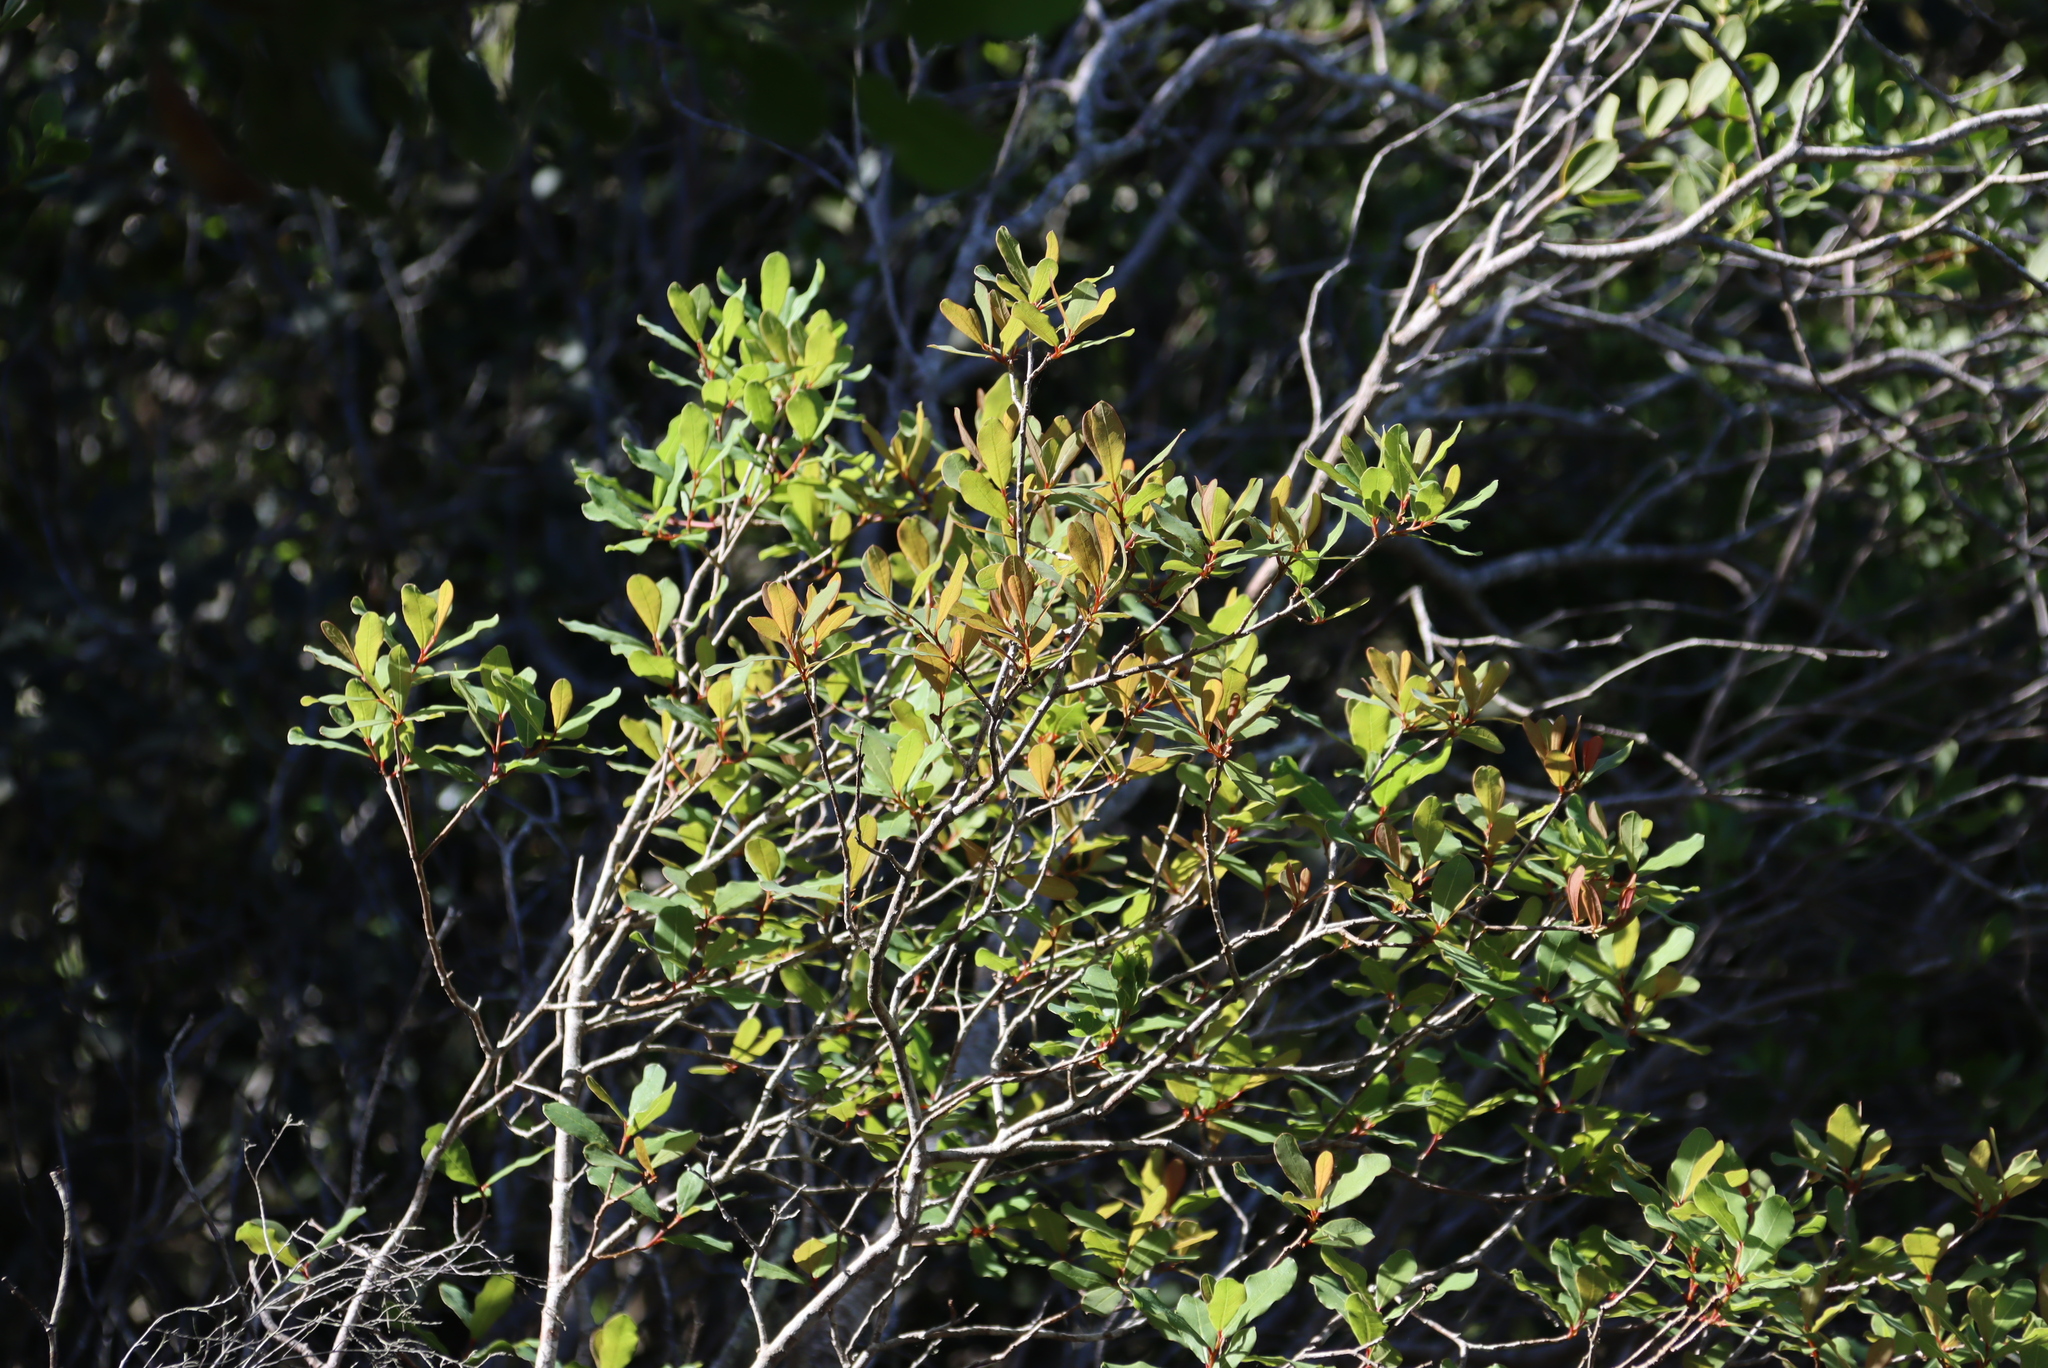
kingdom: Plantae
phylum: Tracheophyta
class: Magnoliopsida
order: Ericales
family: Primulaceae
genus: Myrsine
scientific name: Myrsine melanophloeos
